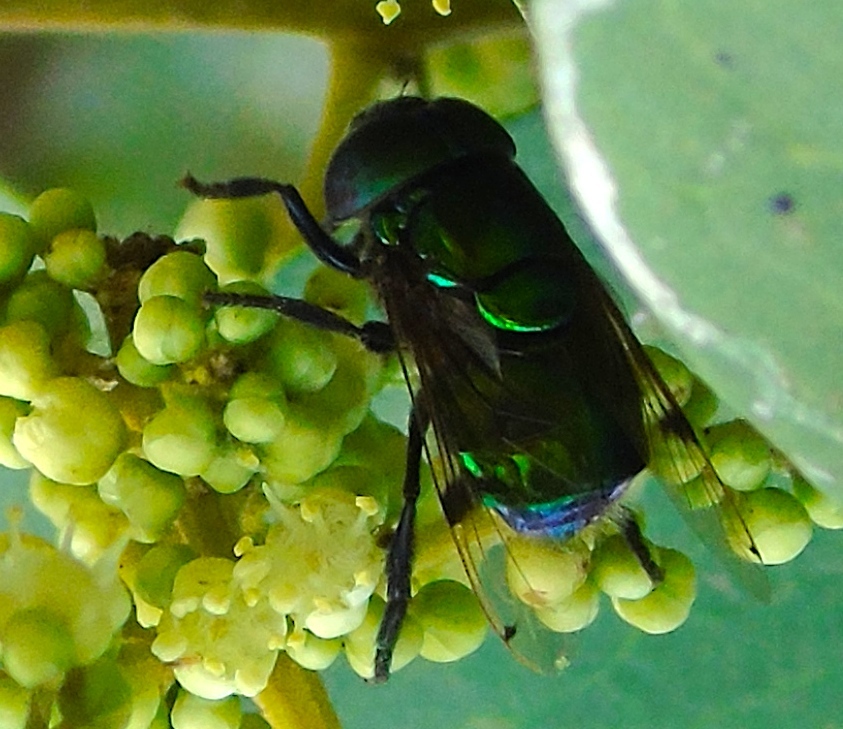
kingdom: Animalia
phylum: Arthropoda
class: Insecta
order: Diptera
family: Syrphidae
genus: Ornidia
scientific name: Ornidia
